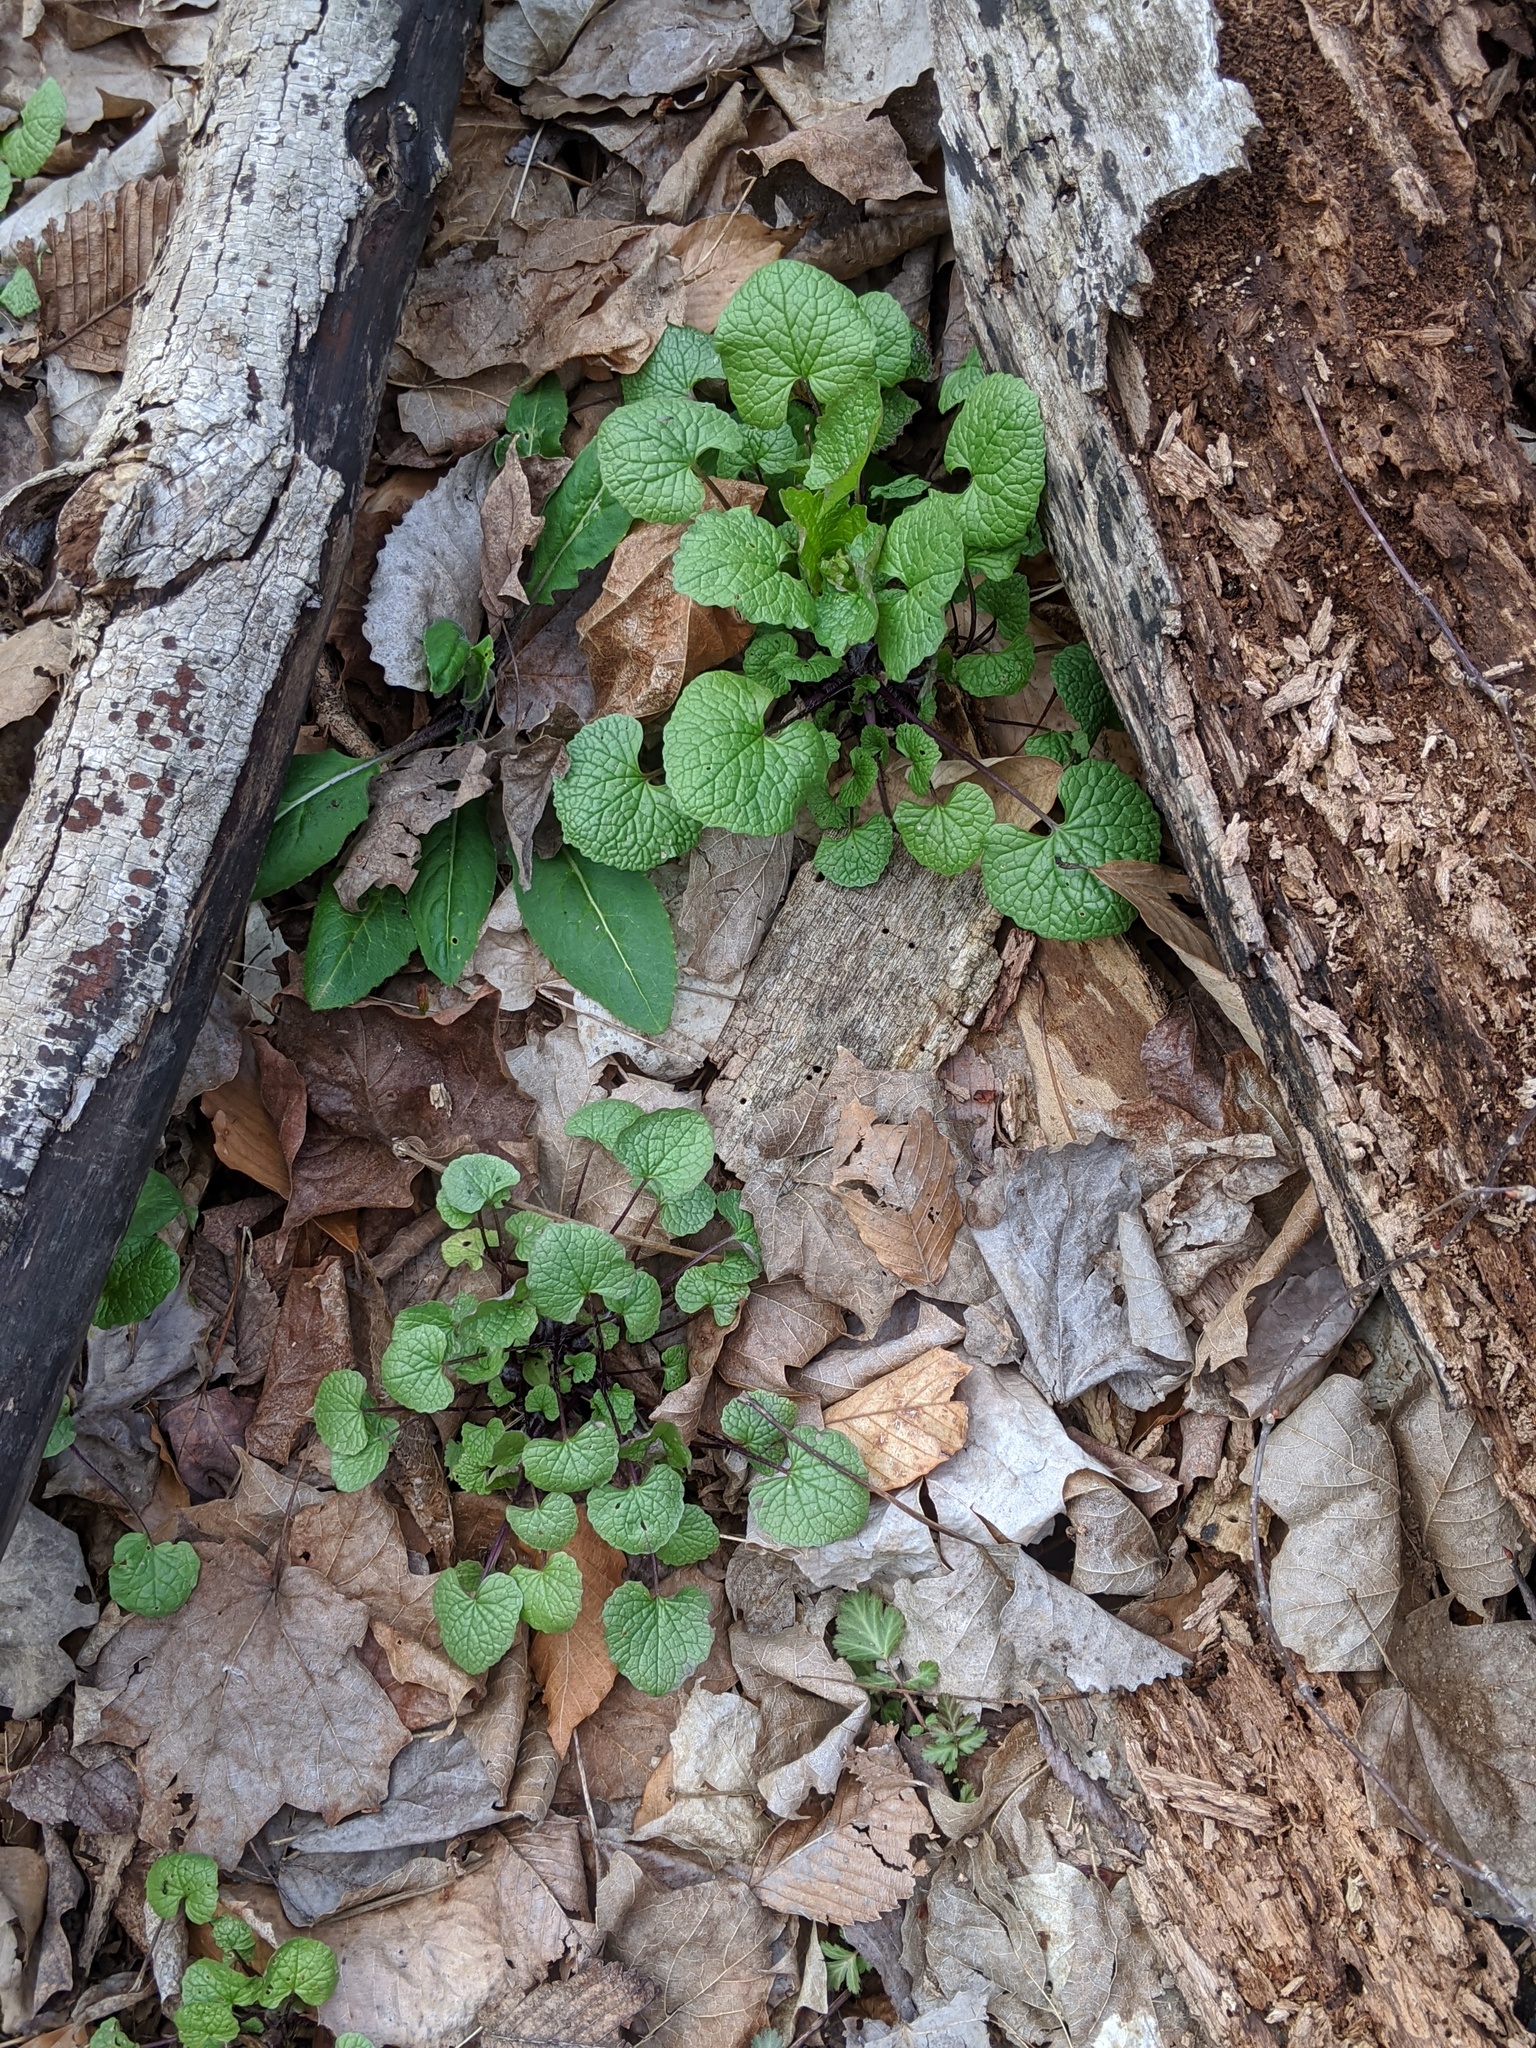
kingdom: Plantae
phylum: Tracheophyta
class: Magnoliopsida
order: Brassicales
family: Brassicaceae
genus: Alliaria
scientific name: Alliaria petiolata
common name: Garlic mustard
